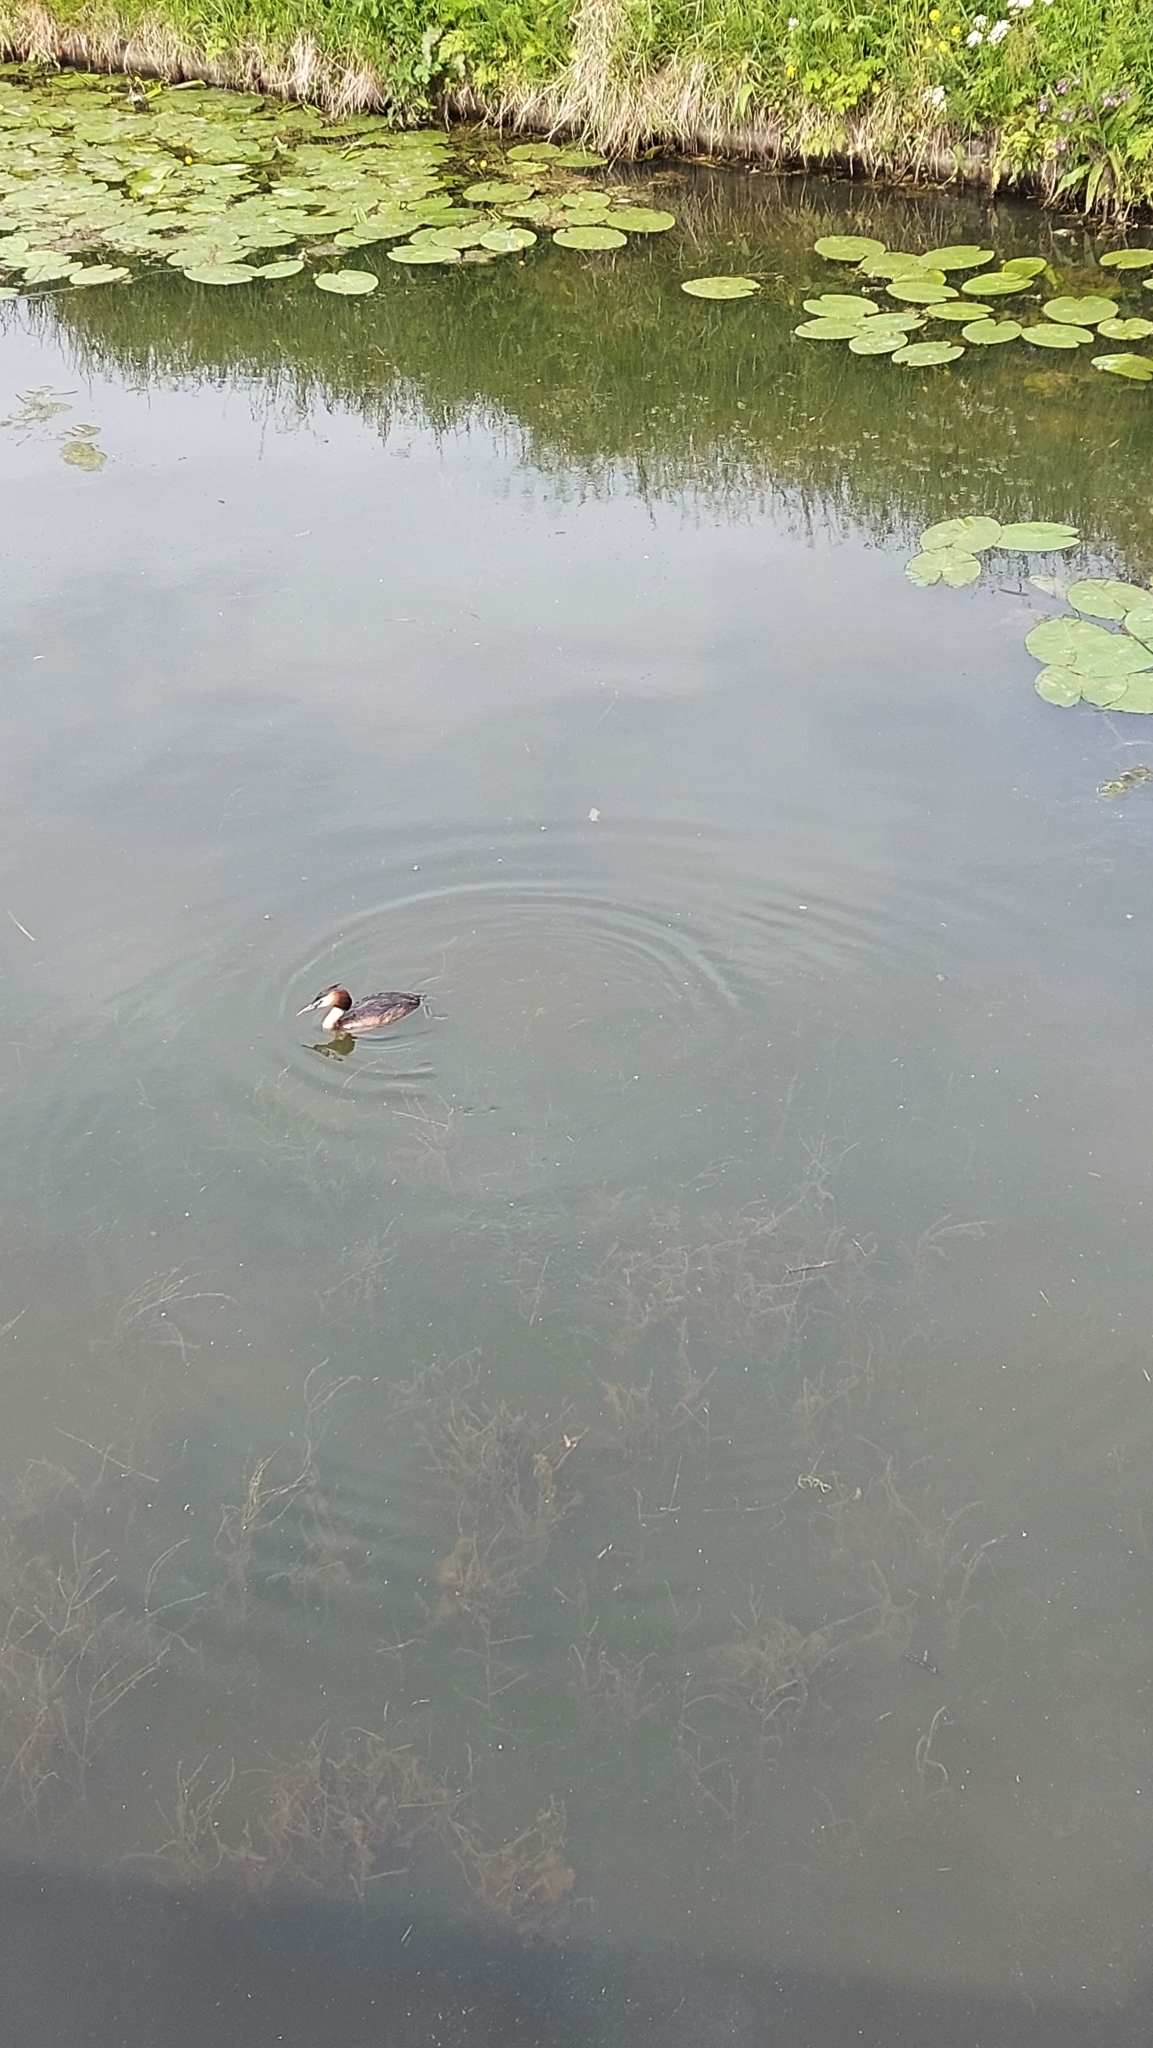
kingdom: Animalia
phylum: Chordata
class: Aves
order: Podicipediformes
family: Podicipedidae
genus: Podiceps
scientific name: Podiceps cristatus
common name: Great crested grebe
